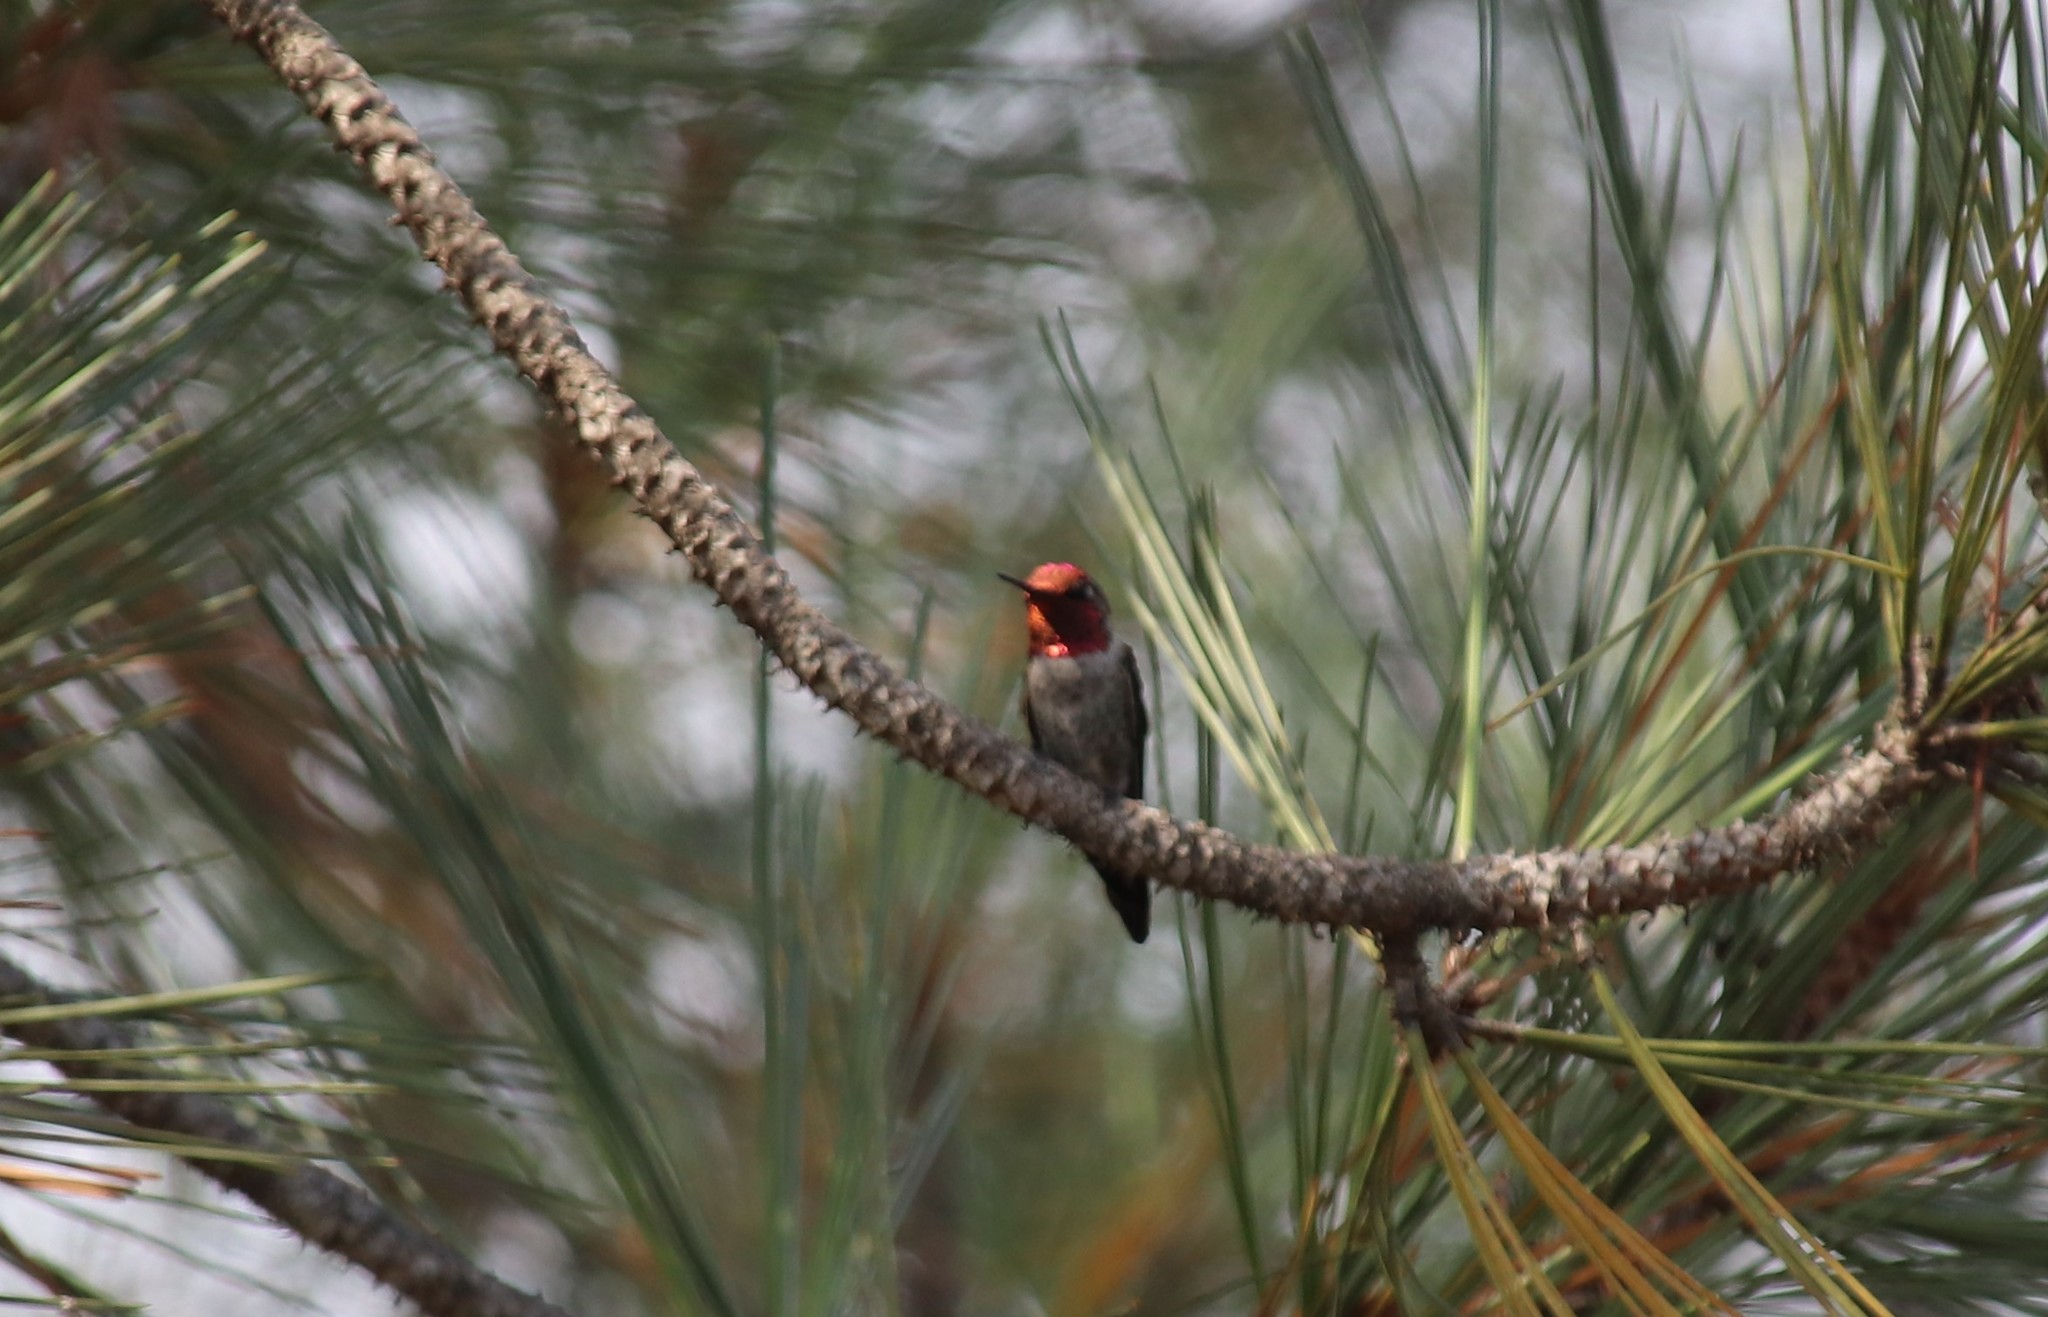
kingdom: Animalia
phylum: Chordata
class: Aves
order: Apodiformes
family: Trochilidae
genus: Calypte
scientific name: Calypte anna
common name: Anna's hummingbird
